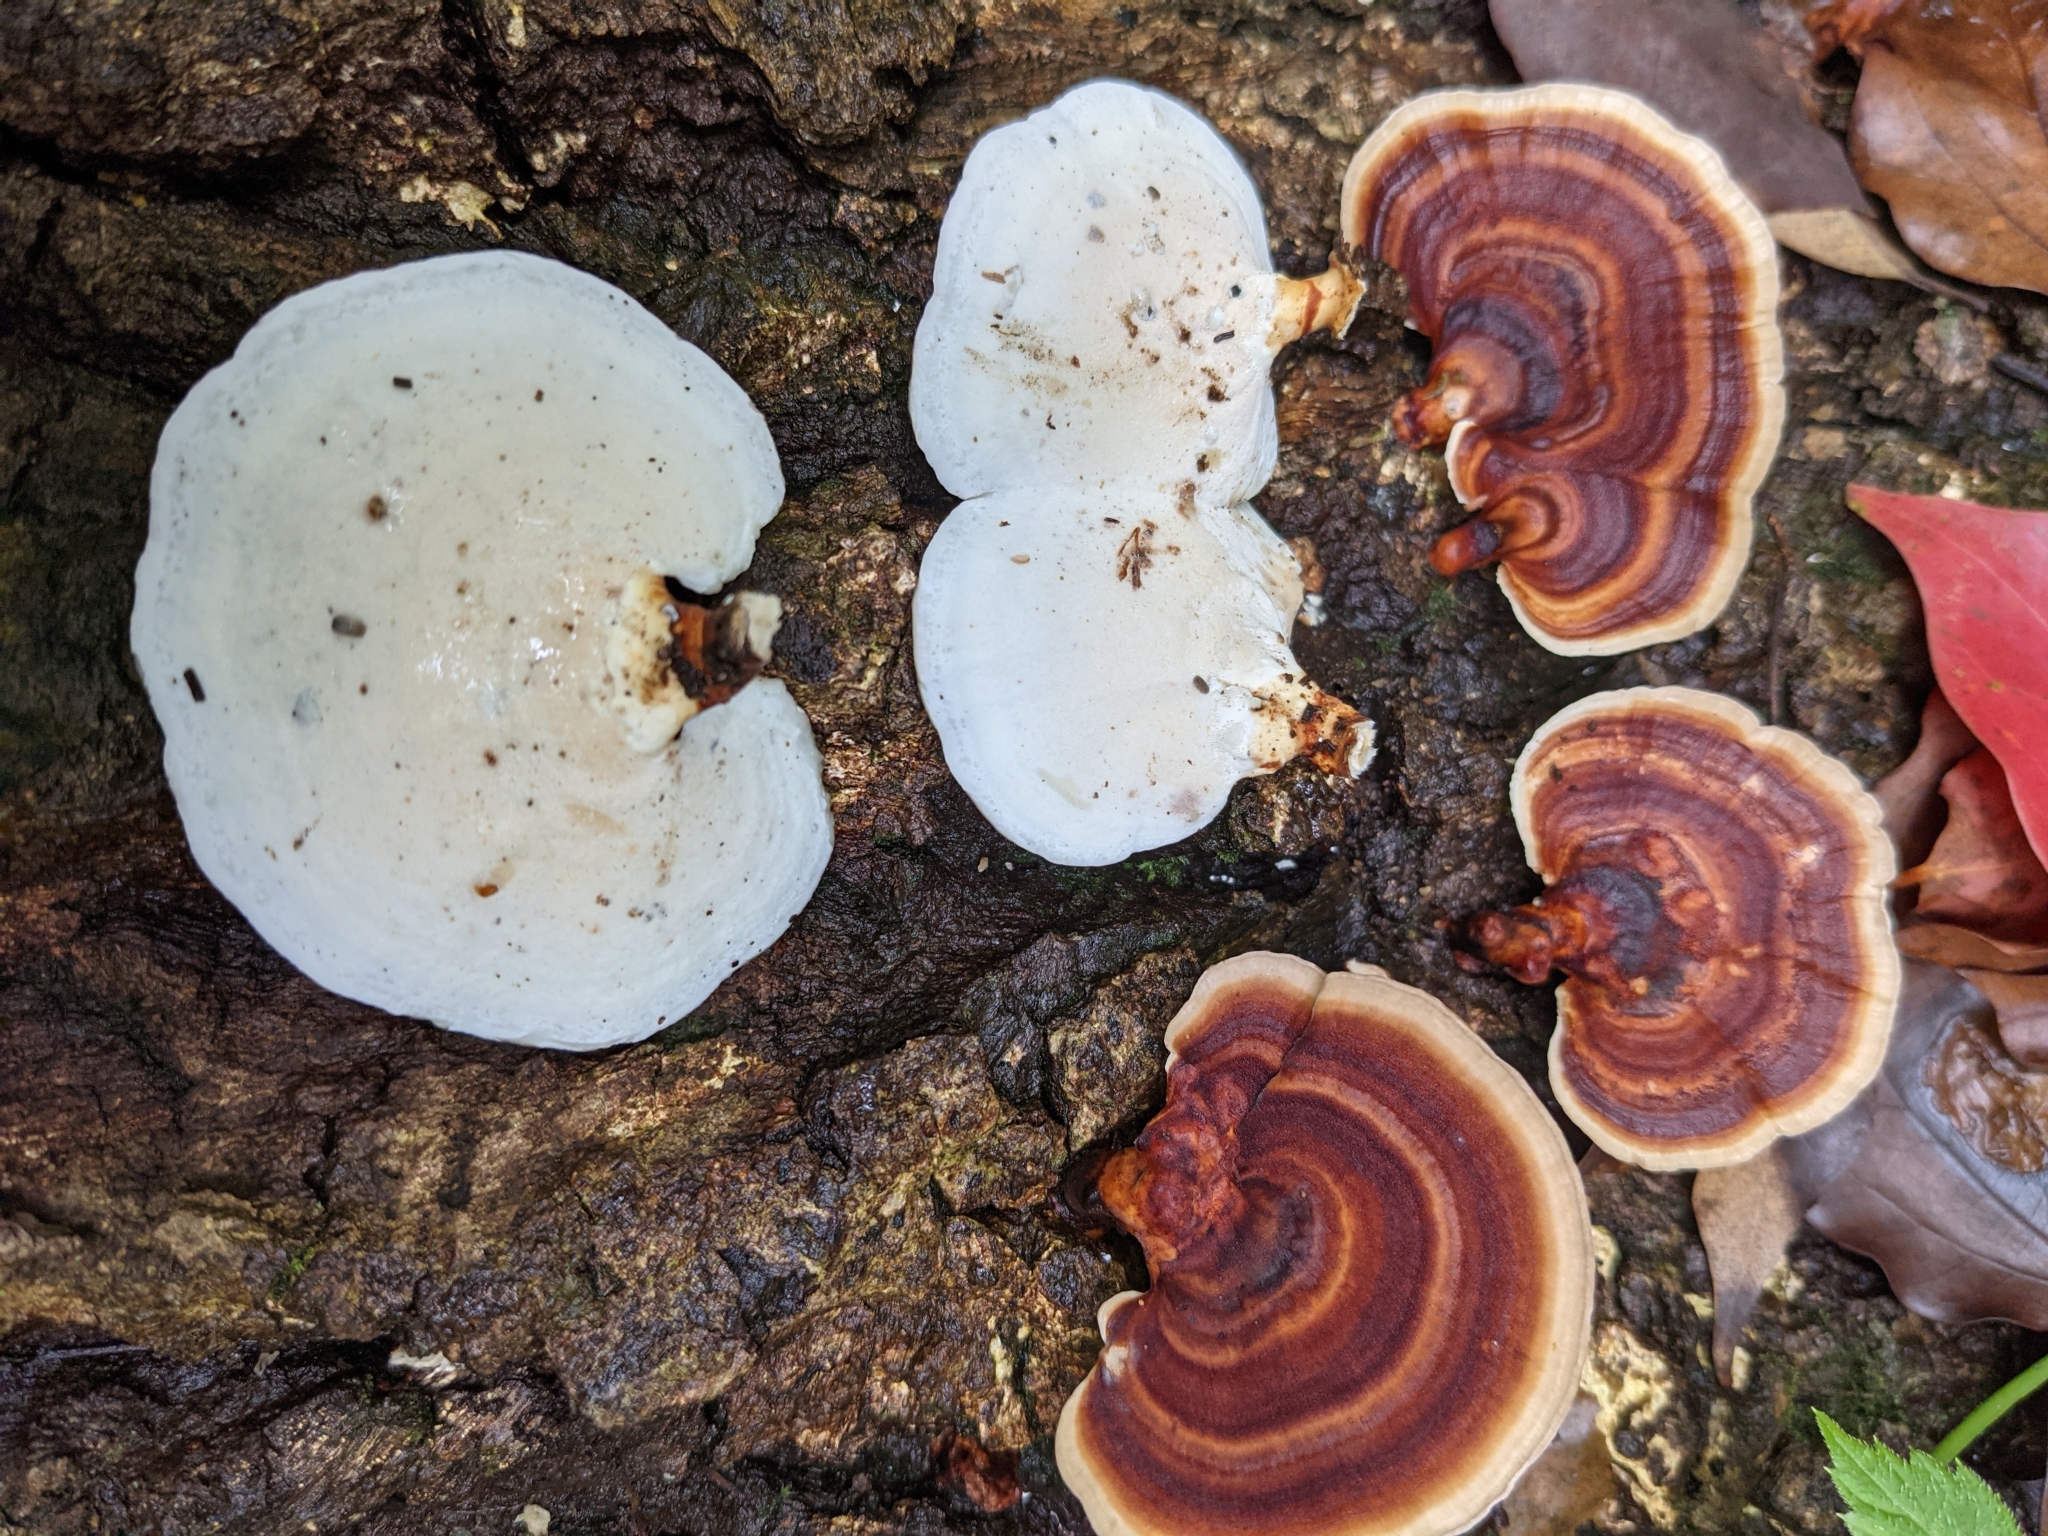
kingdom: Fungi
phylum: Basidiomycota
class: Agaricomycetes
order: Polyporales
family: Polyporaceae
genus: Microporus
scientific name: Microporus affinis
